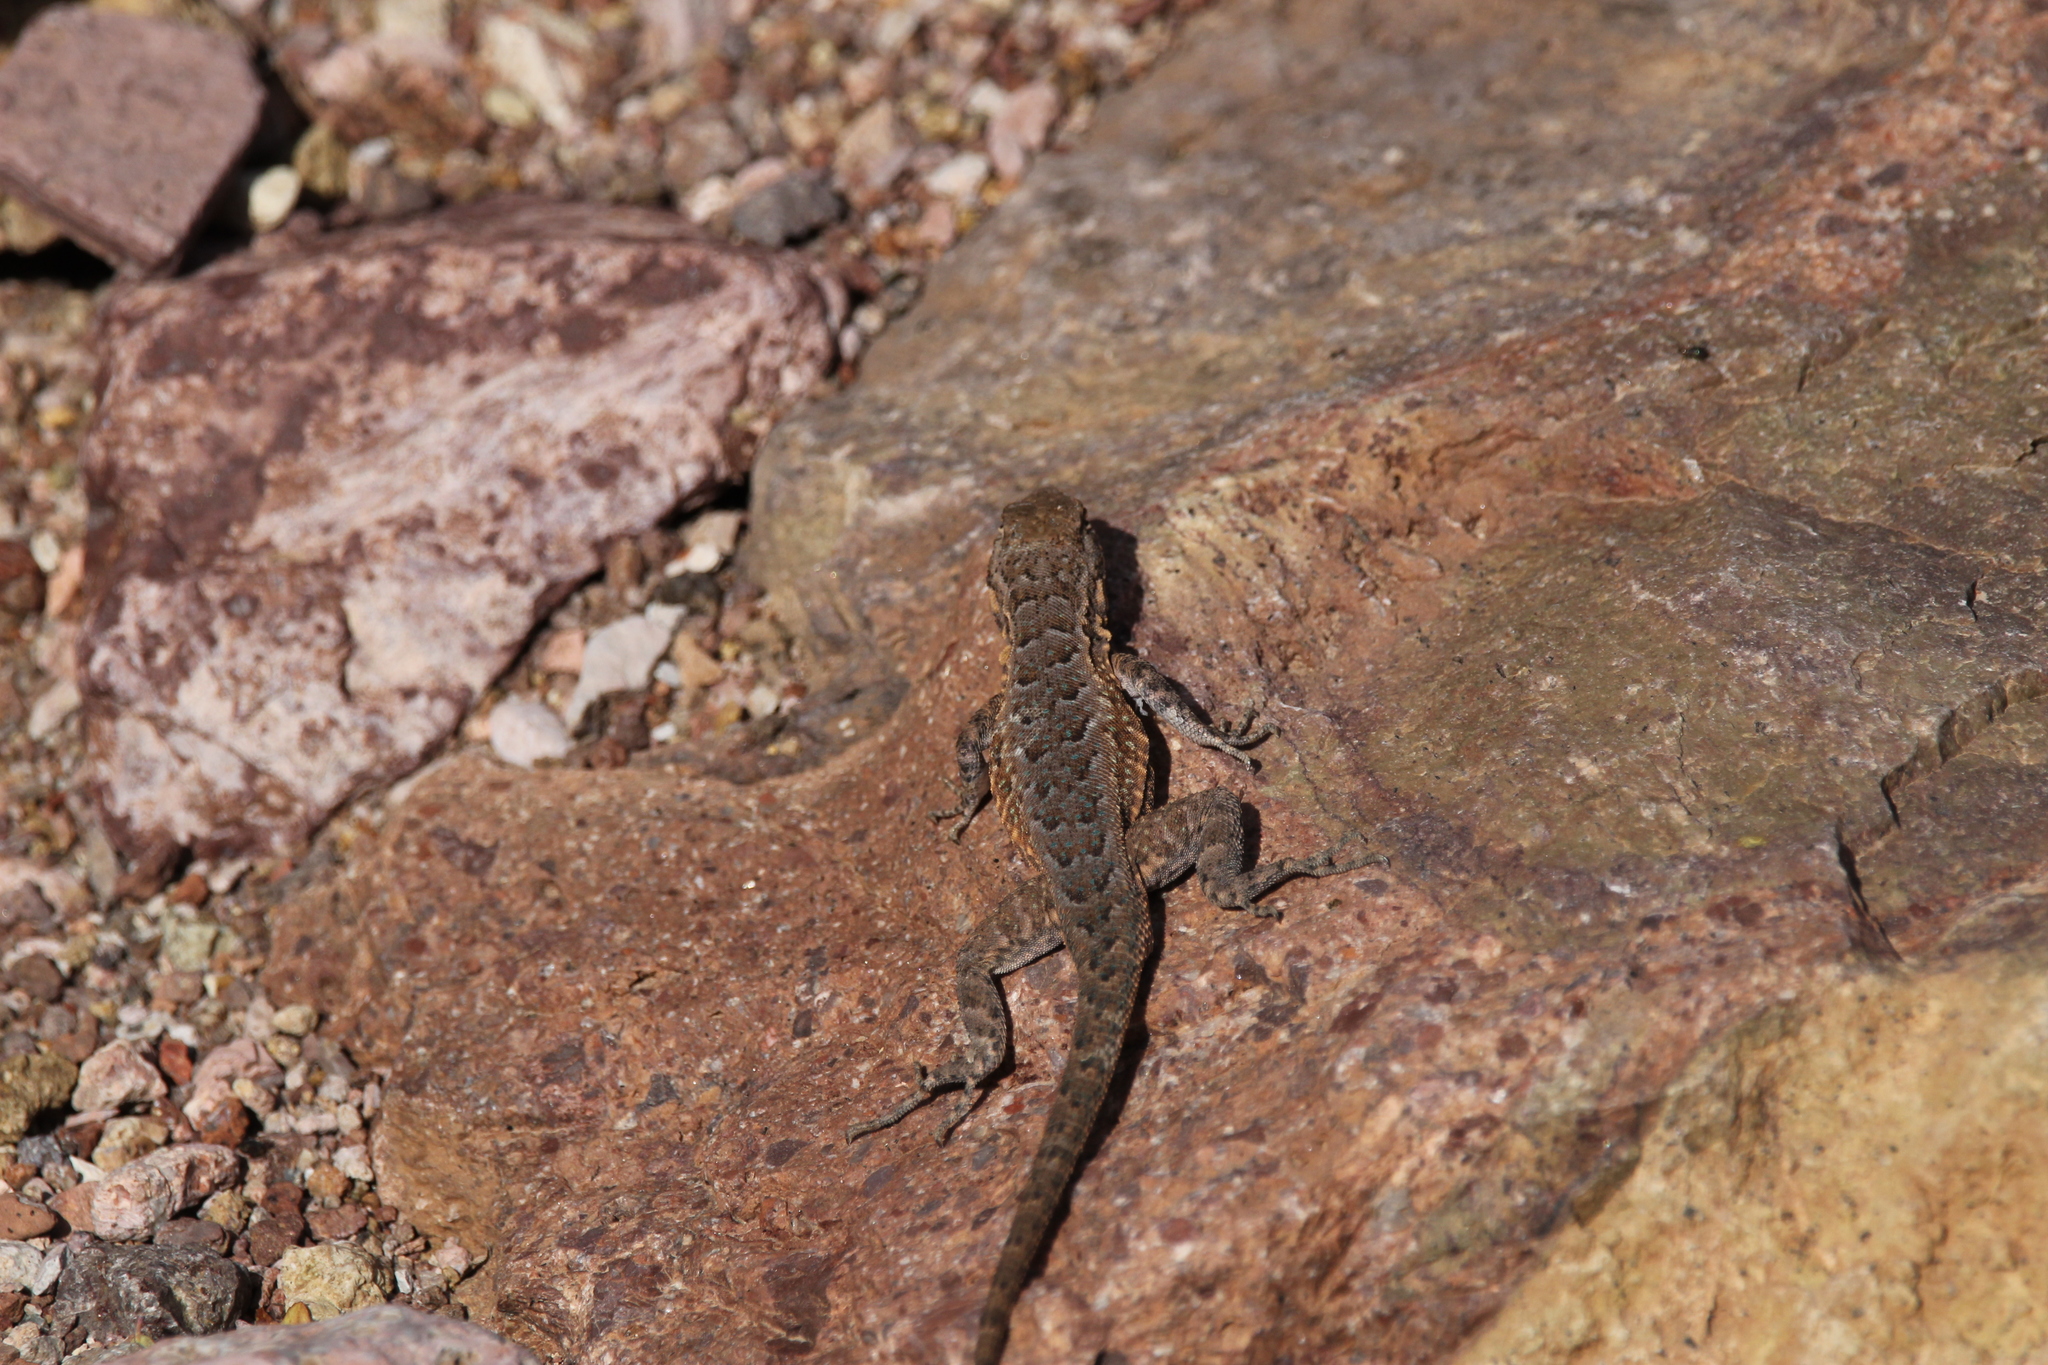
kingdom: Animalia
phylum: Chordata
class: Squamata
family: Phrynosomatidae
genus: Uta
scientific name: Uta stansburiana
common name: Side-blotched lizard
